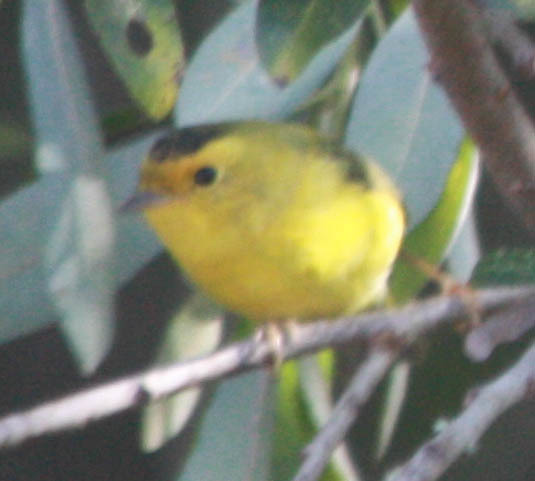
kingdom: Animalia
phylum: Chordata
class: Aves
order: Passeriformes
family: Parulidae
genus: Cardellina
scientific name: Cardellina pusilla
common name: Wilson's warbler
